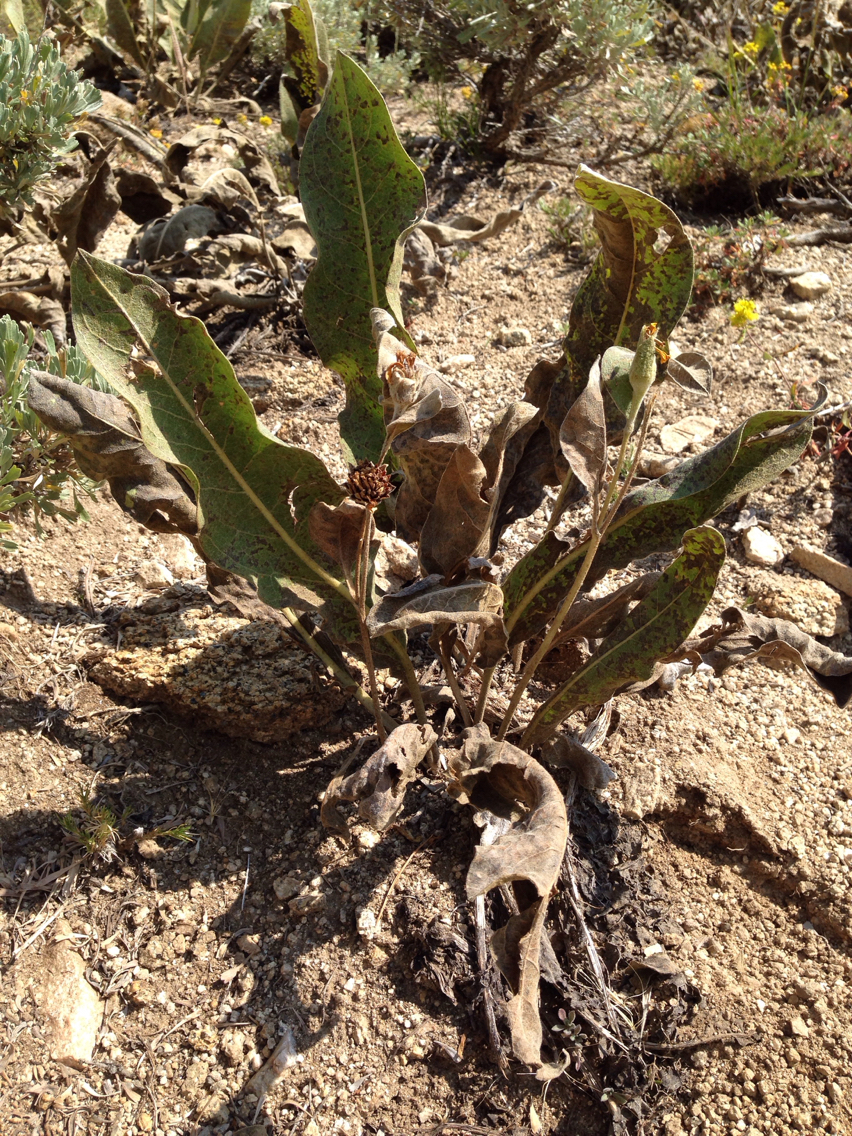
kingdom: Plantae
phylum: Tracheophyta
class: Magnoliopsida
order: Asterales
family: Asteraceae
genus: Wyethia
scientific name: Wyethia mollis
